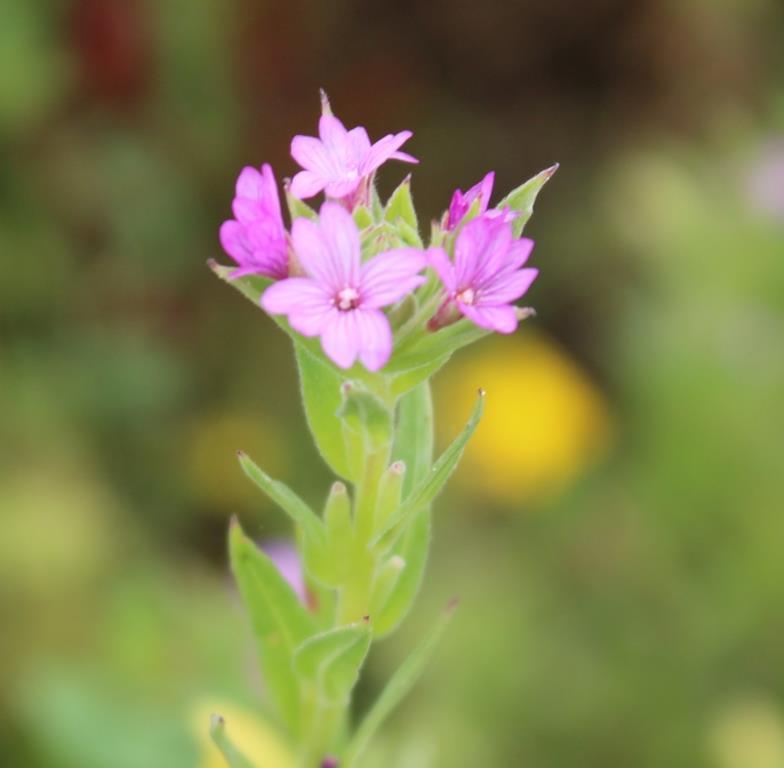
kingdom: Plantae
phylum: Tracheophyta
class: Magnoliopsida
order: Myrtales
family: Onagraceae
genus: Epilobium
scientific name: Epilobium densiflorum
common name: Dense spike-primrose
